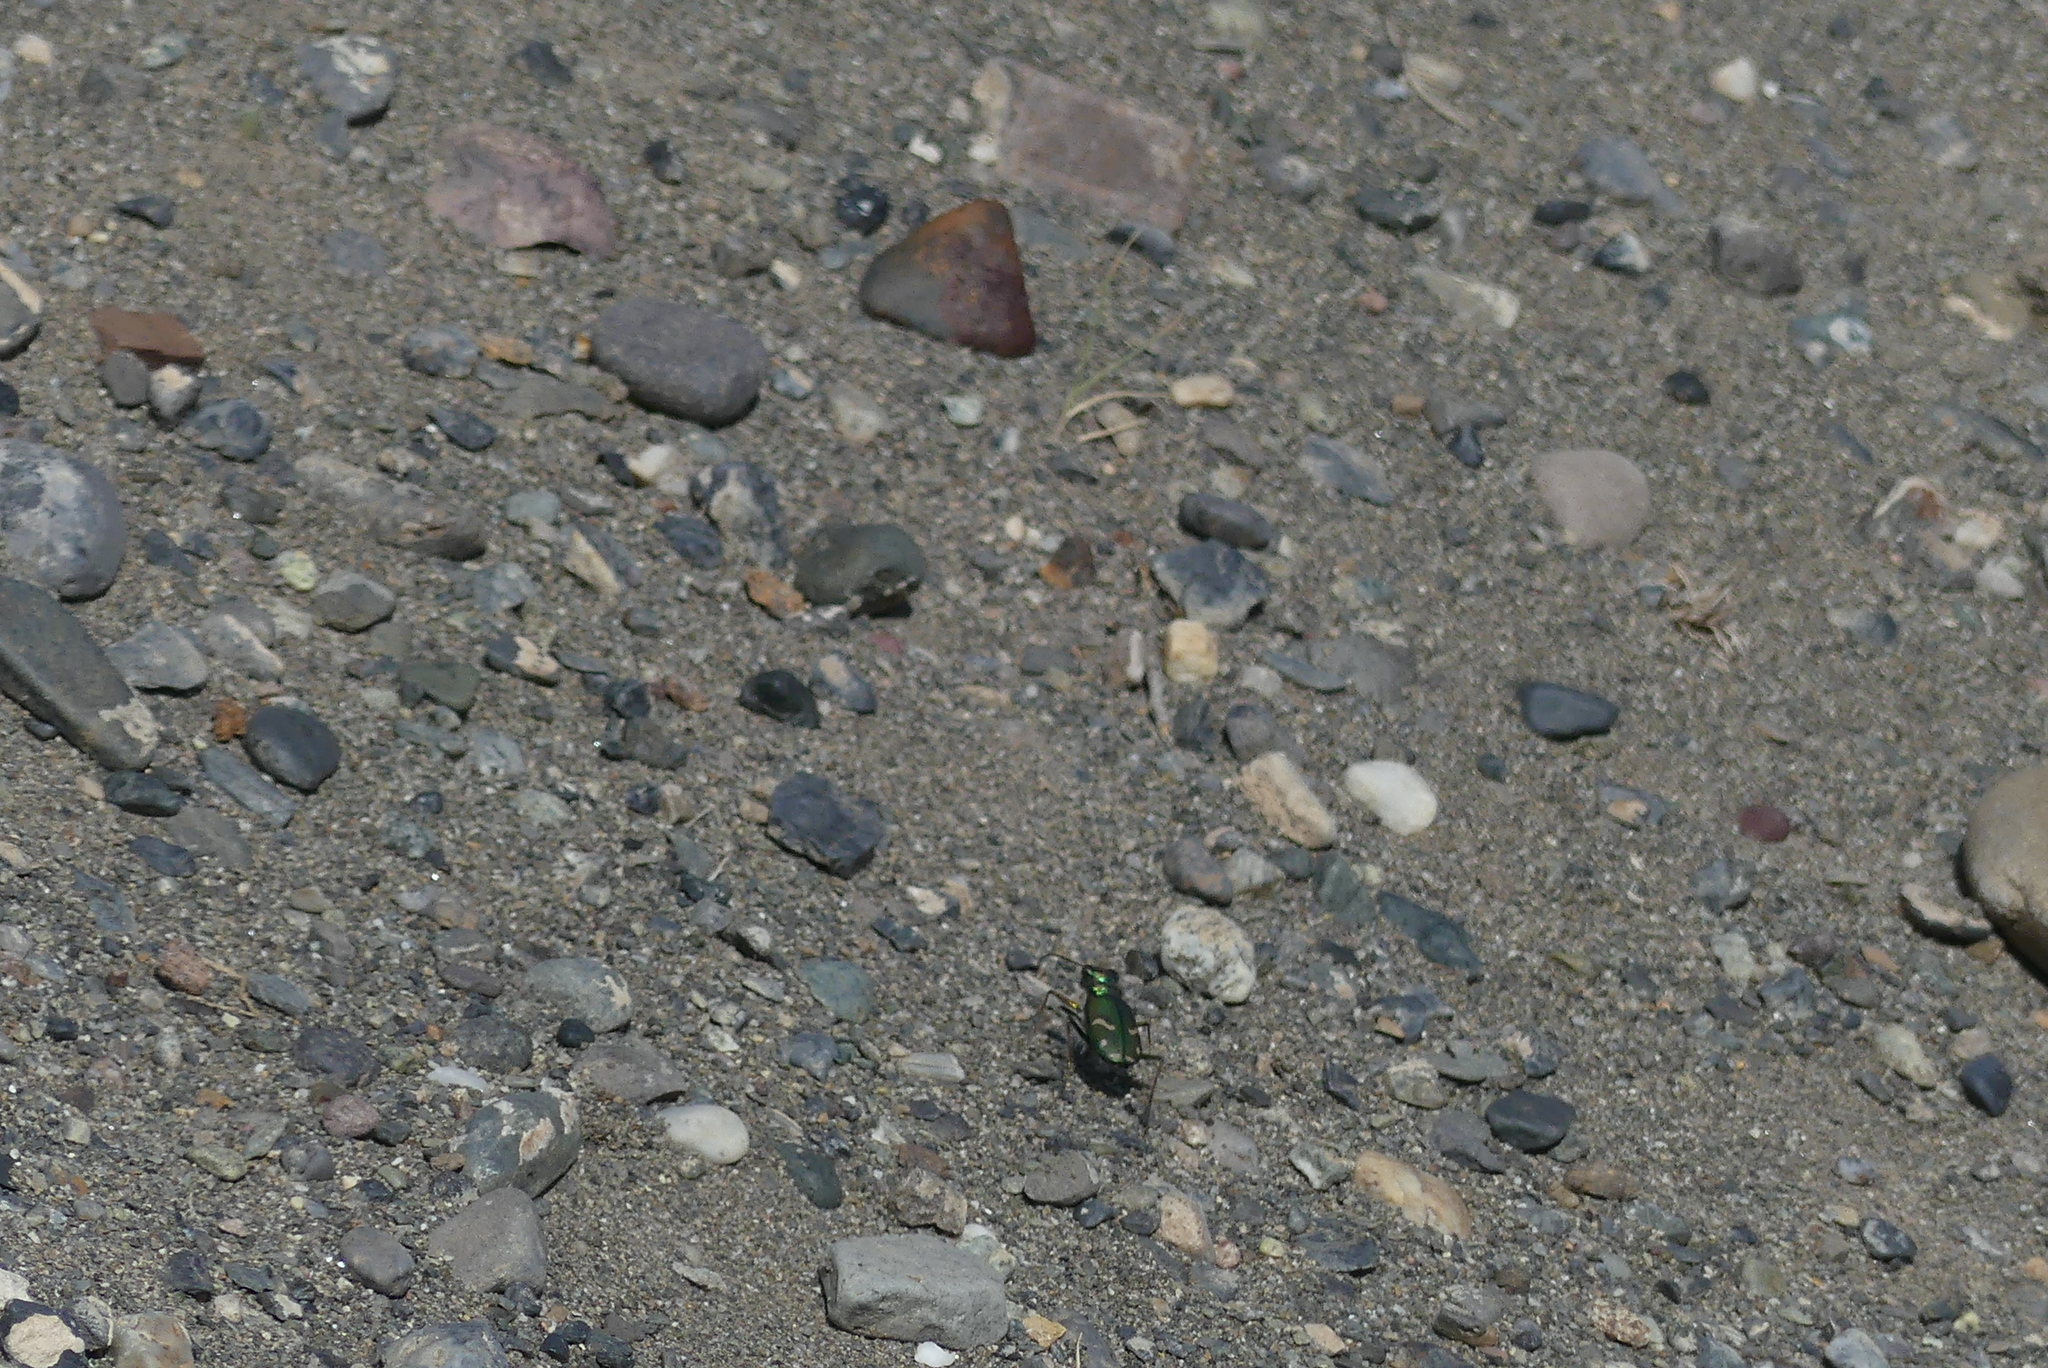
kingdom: Animalia
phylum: Arthropoda
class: Insecta
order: Coleoptera
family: Carabidae
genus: Cicindela
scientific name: Cicindela purpurea
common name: Cow path tiger beetle
